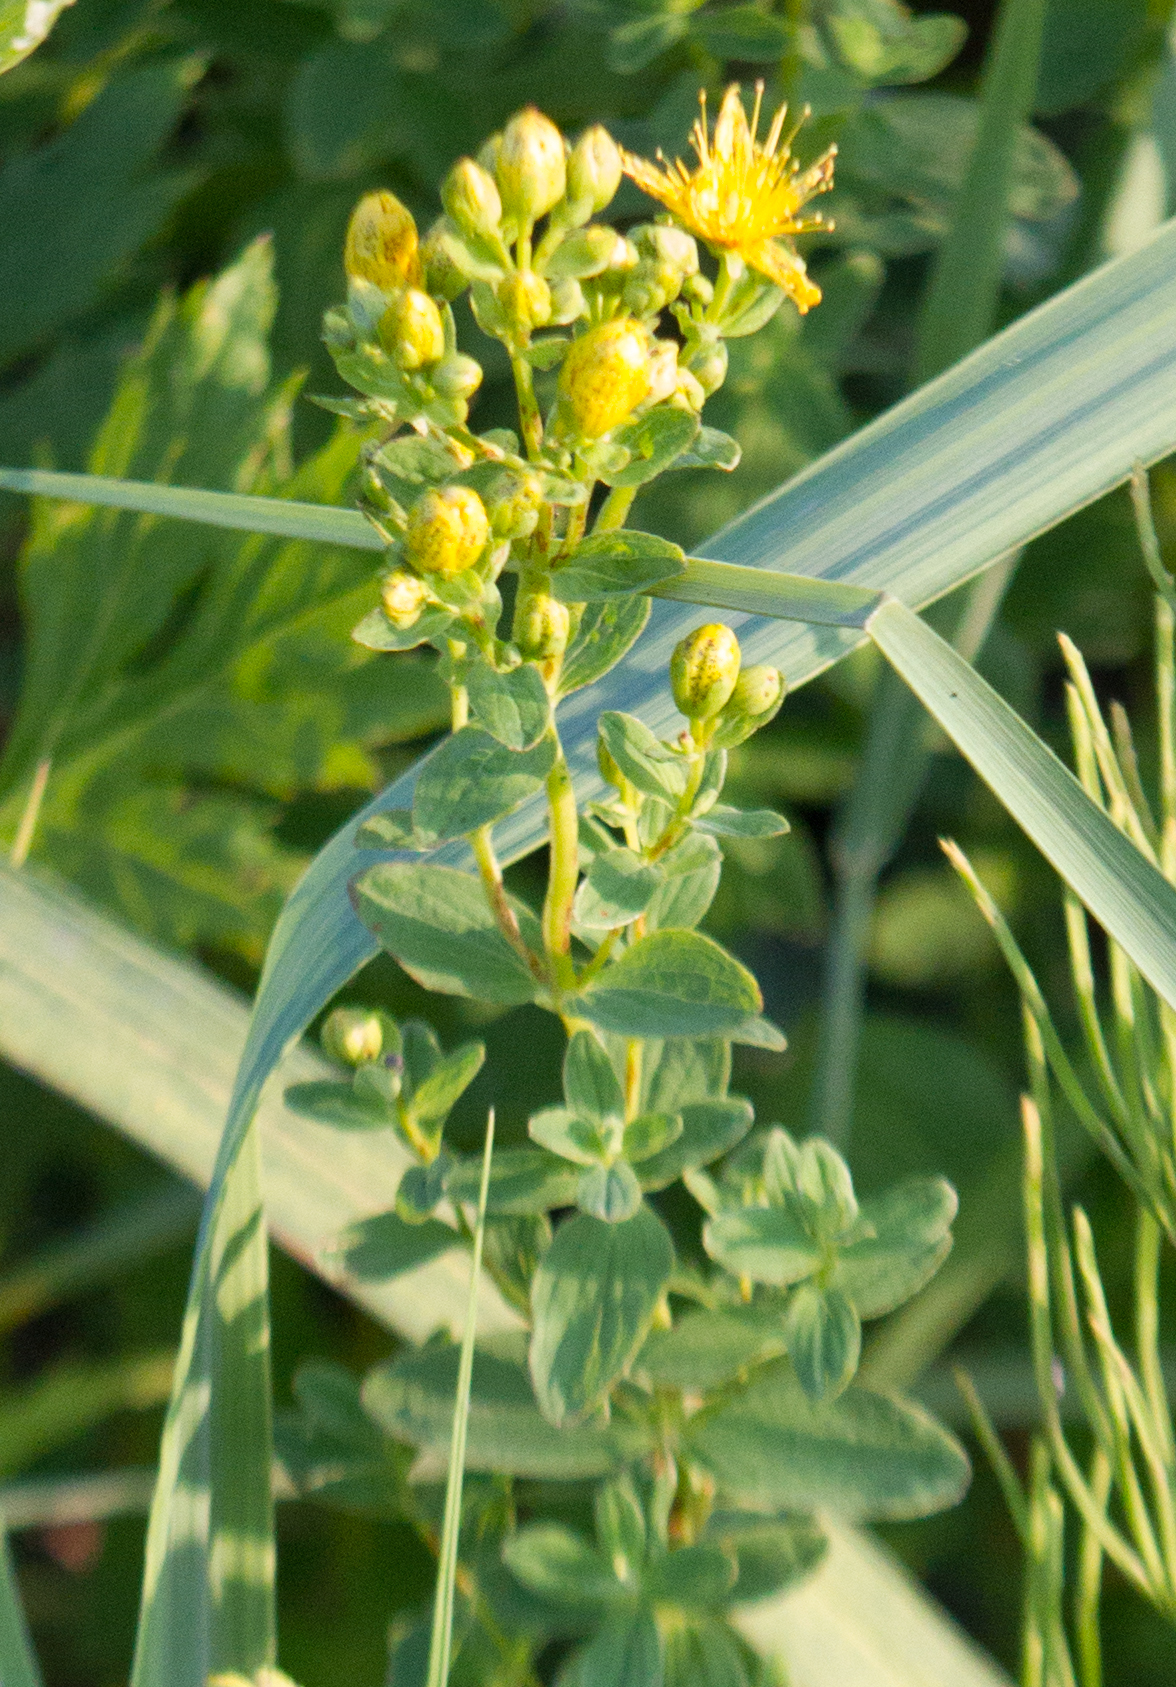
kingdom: Plantae
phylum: Tracheophyta
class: Magnoliopsida
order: Malpighiales
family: Hypericaceae
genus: Hypericum
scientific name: Hypericum maculatum
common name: Imperforate st. john's-wort
